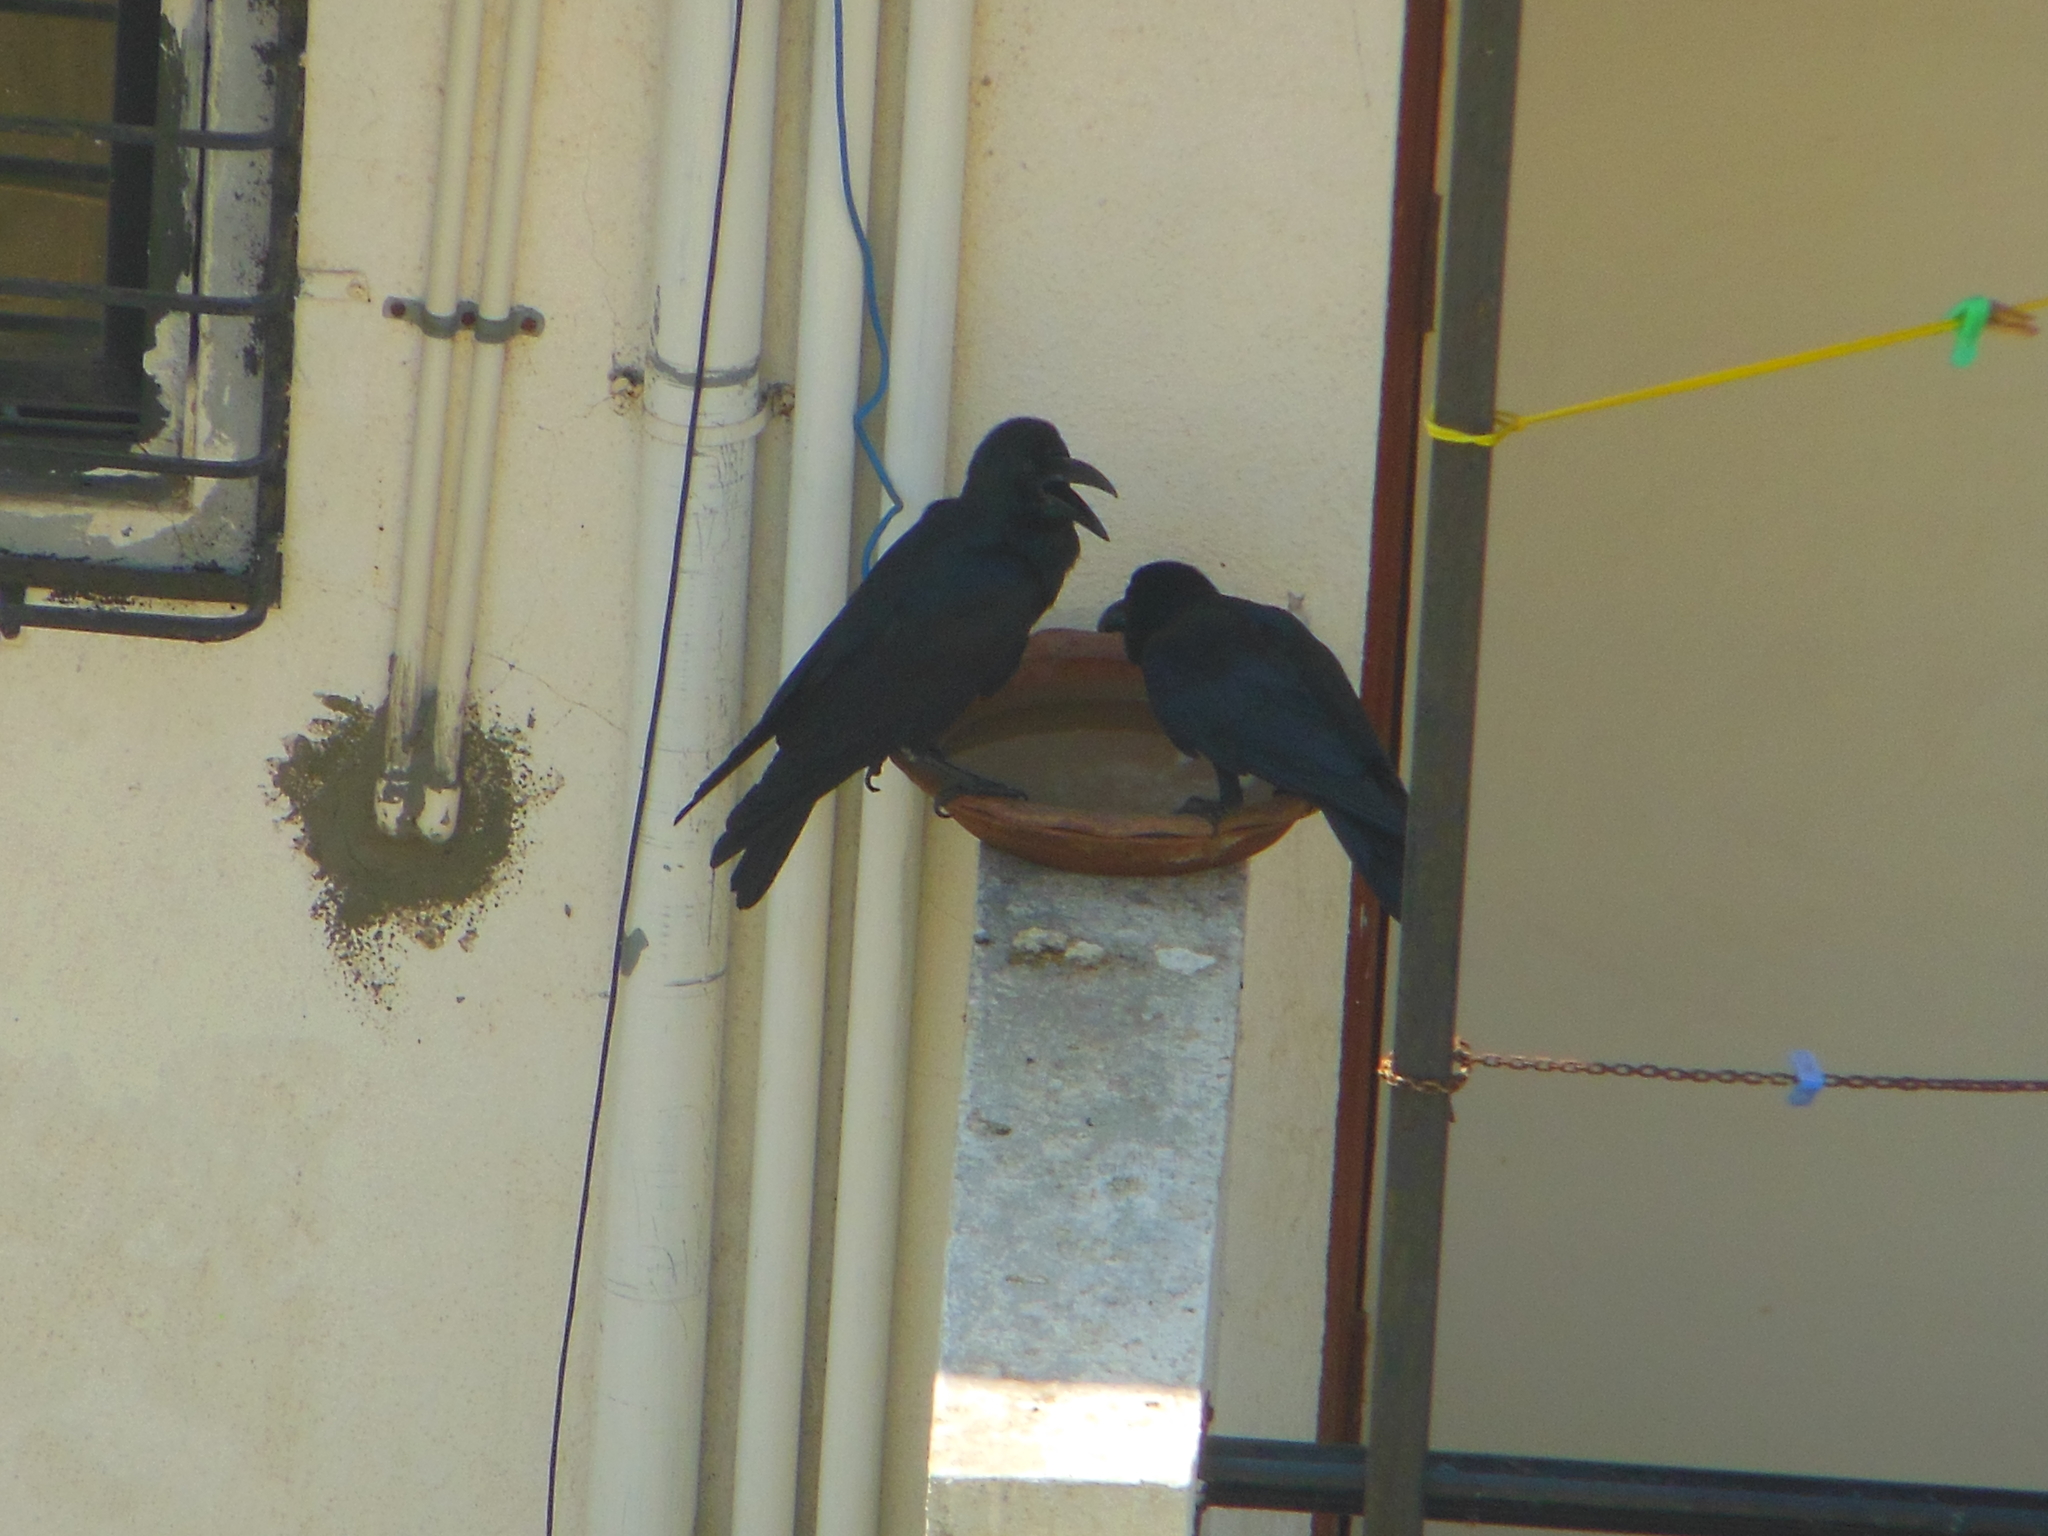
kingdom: Animalia
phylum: Chordata
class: Aves
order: Passeriformes
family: Corvidae
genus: Corvus
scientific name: Corvus macrorhynchos
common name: Large-billed crow
